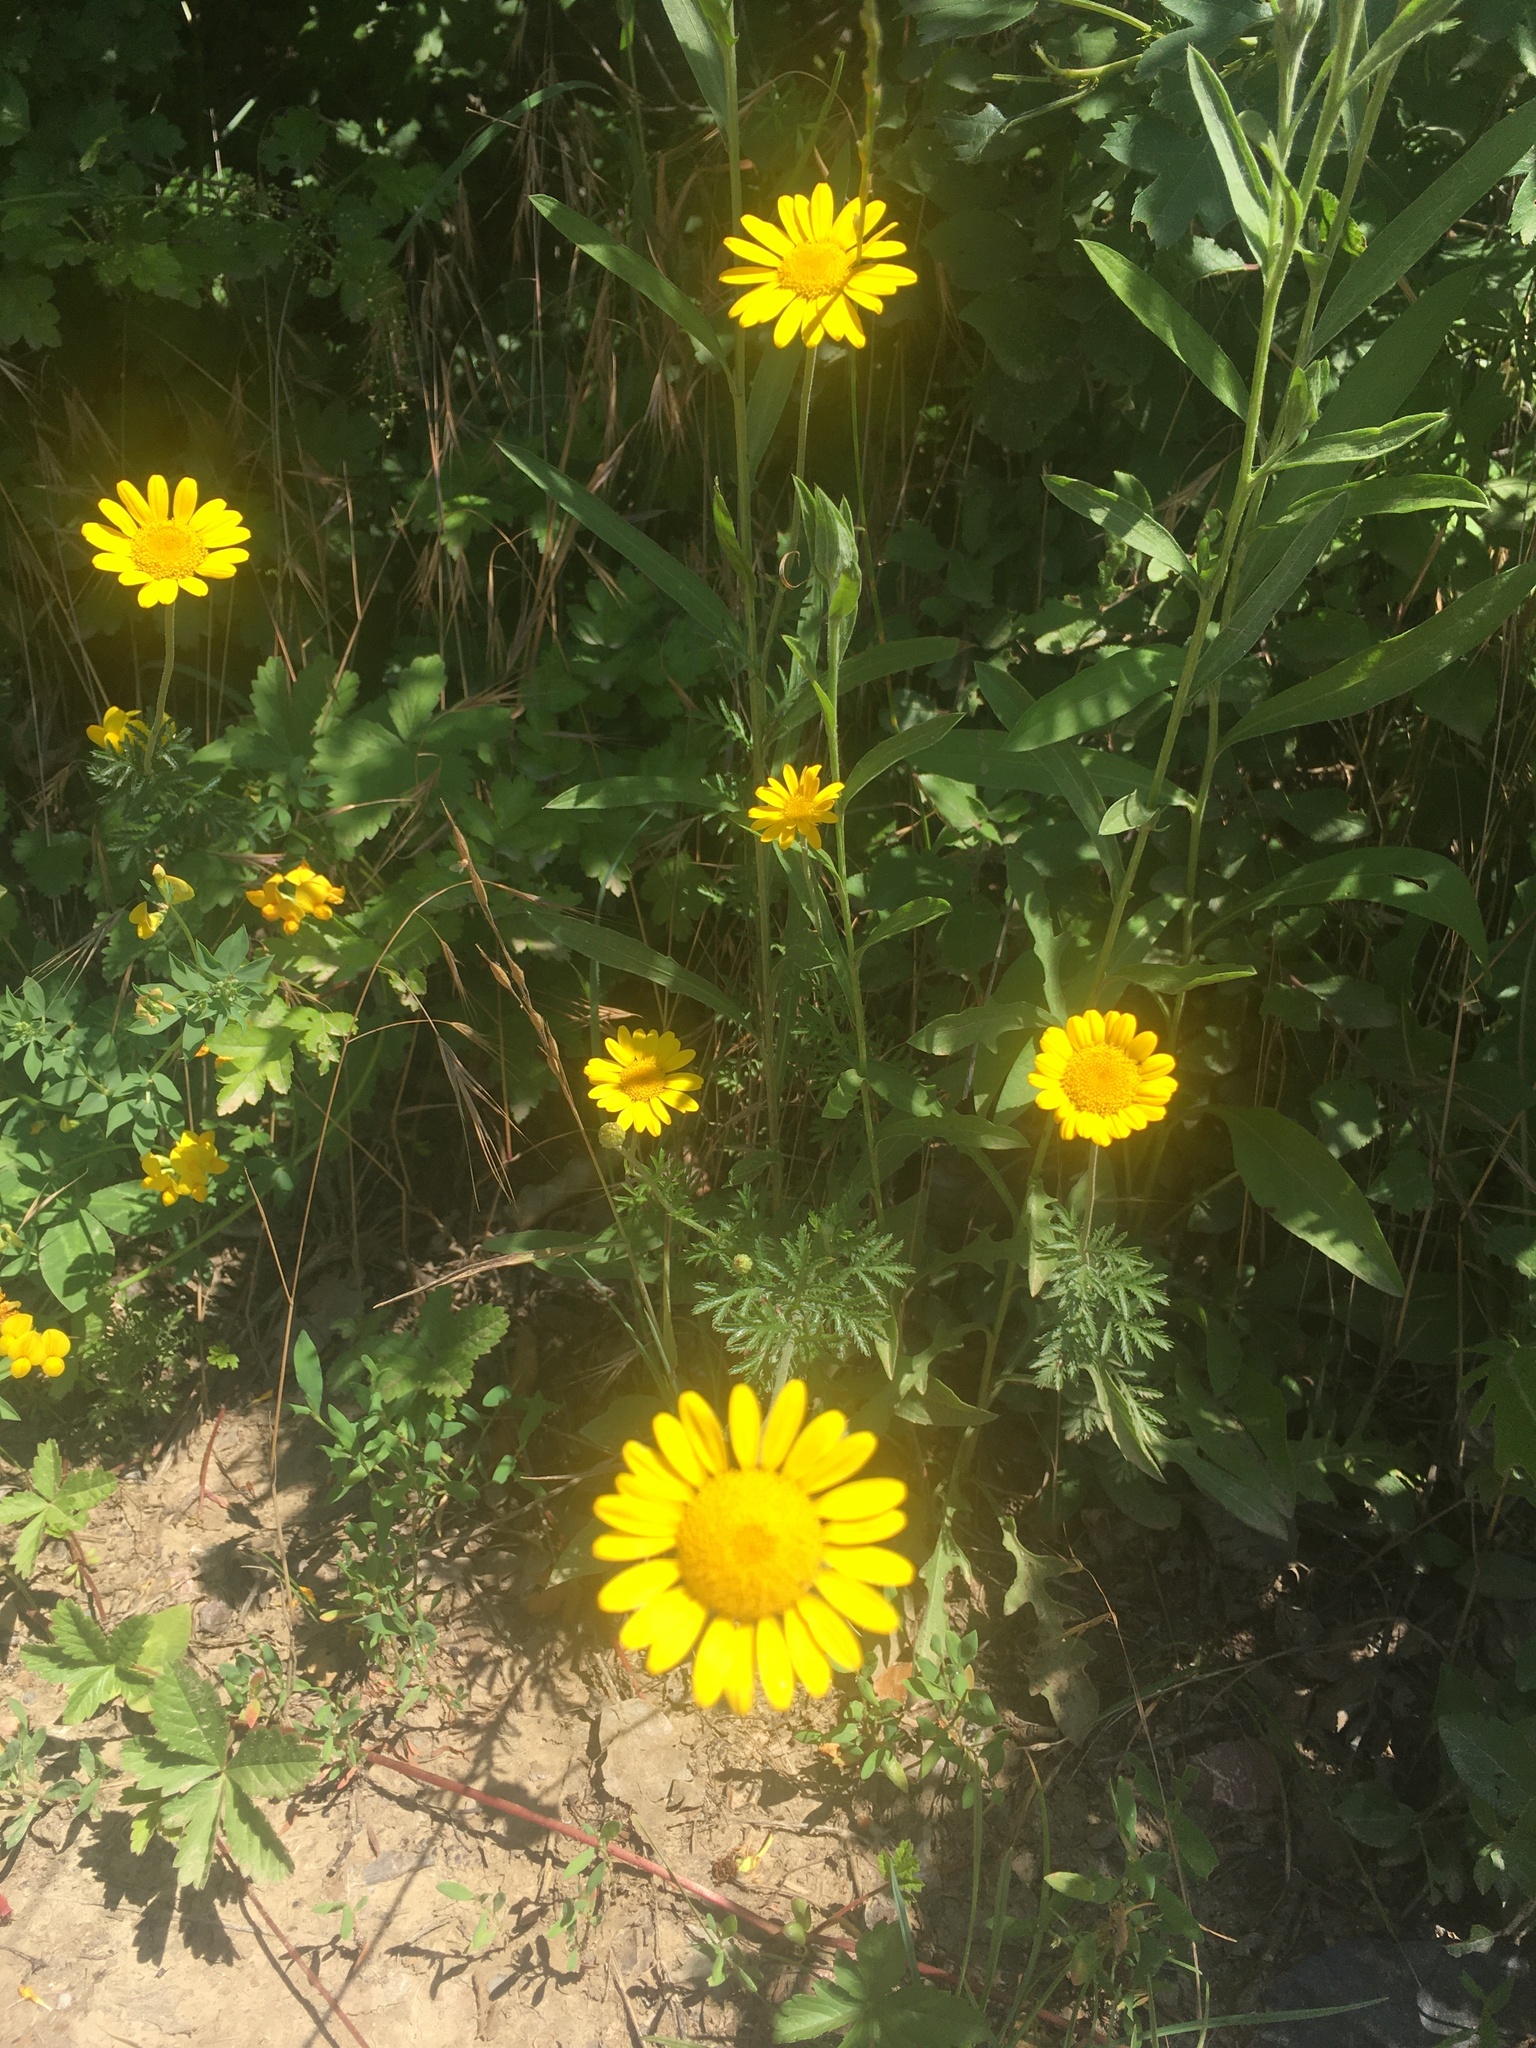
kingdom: Plantae
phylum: Tracheophyta
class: Magnoliopsida
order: Asterales
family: Asteraceae
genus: Cota
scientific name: Cota tinctoria
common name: Golden chamomile
